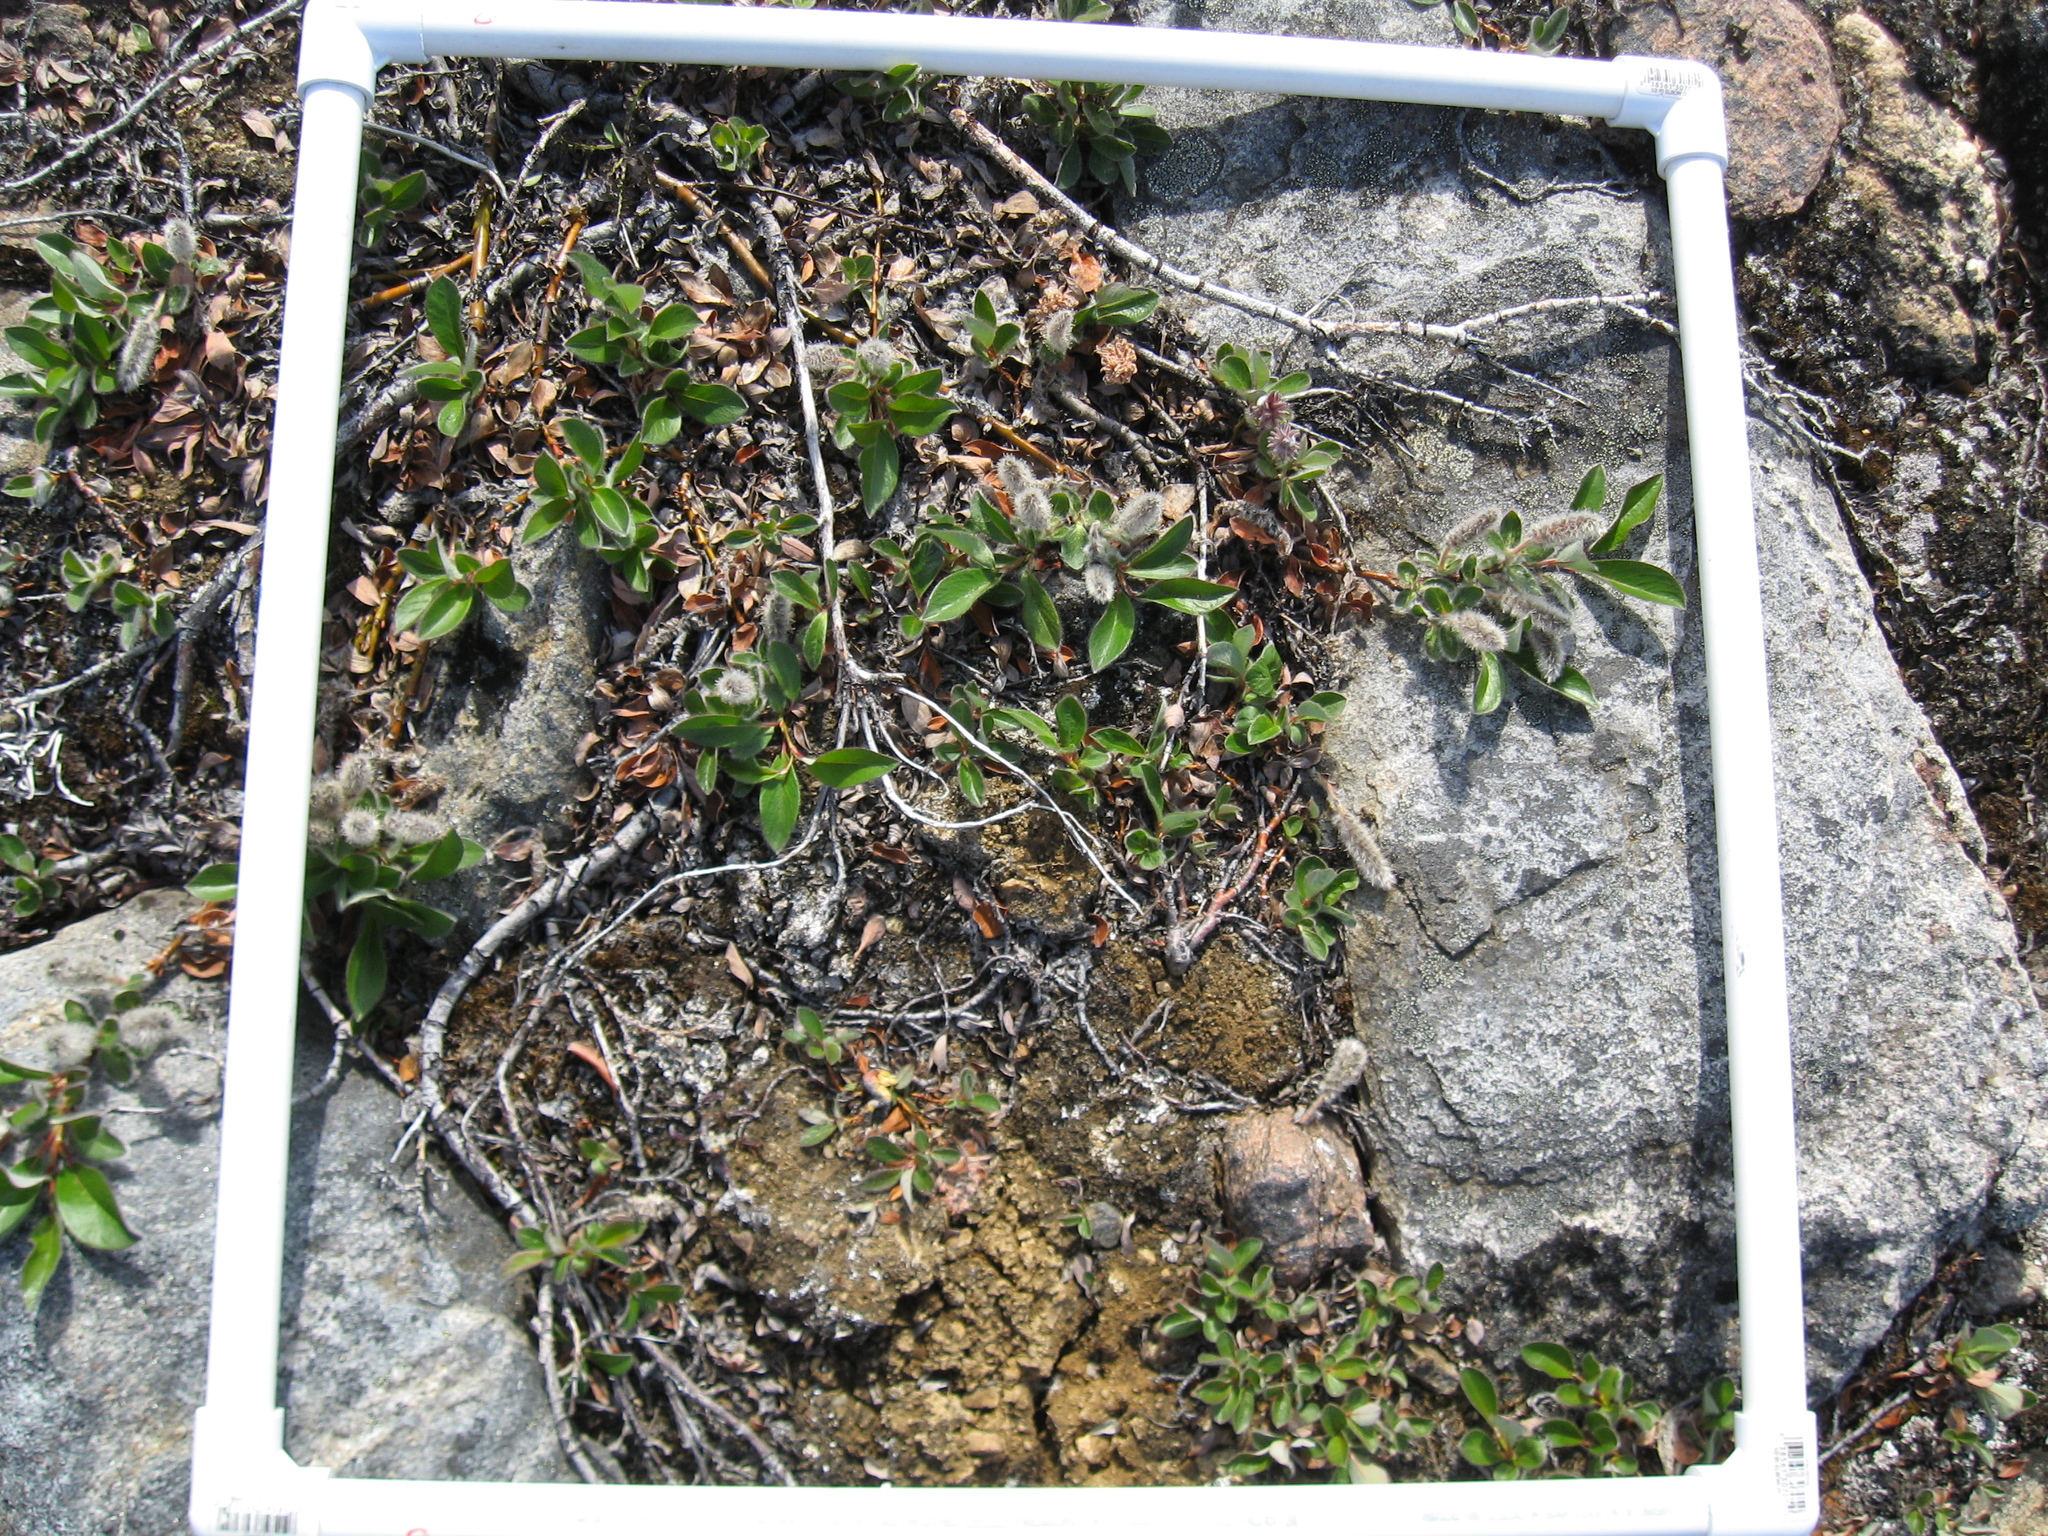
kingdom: Plantae
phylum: Tracheophyta
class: Magnoliopsida
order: Malpighiales
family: Salicaceae
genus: Salix
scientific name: Salix arctica
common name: Arctic willow
